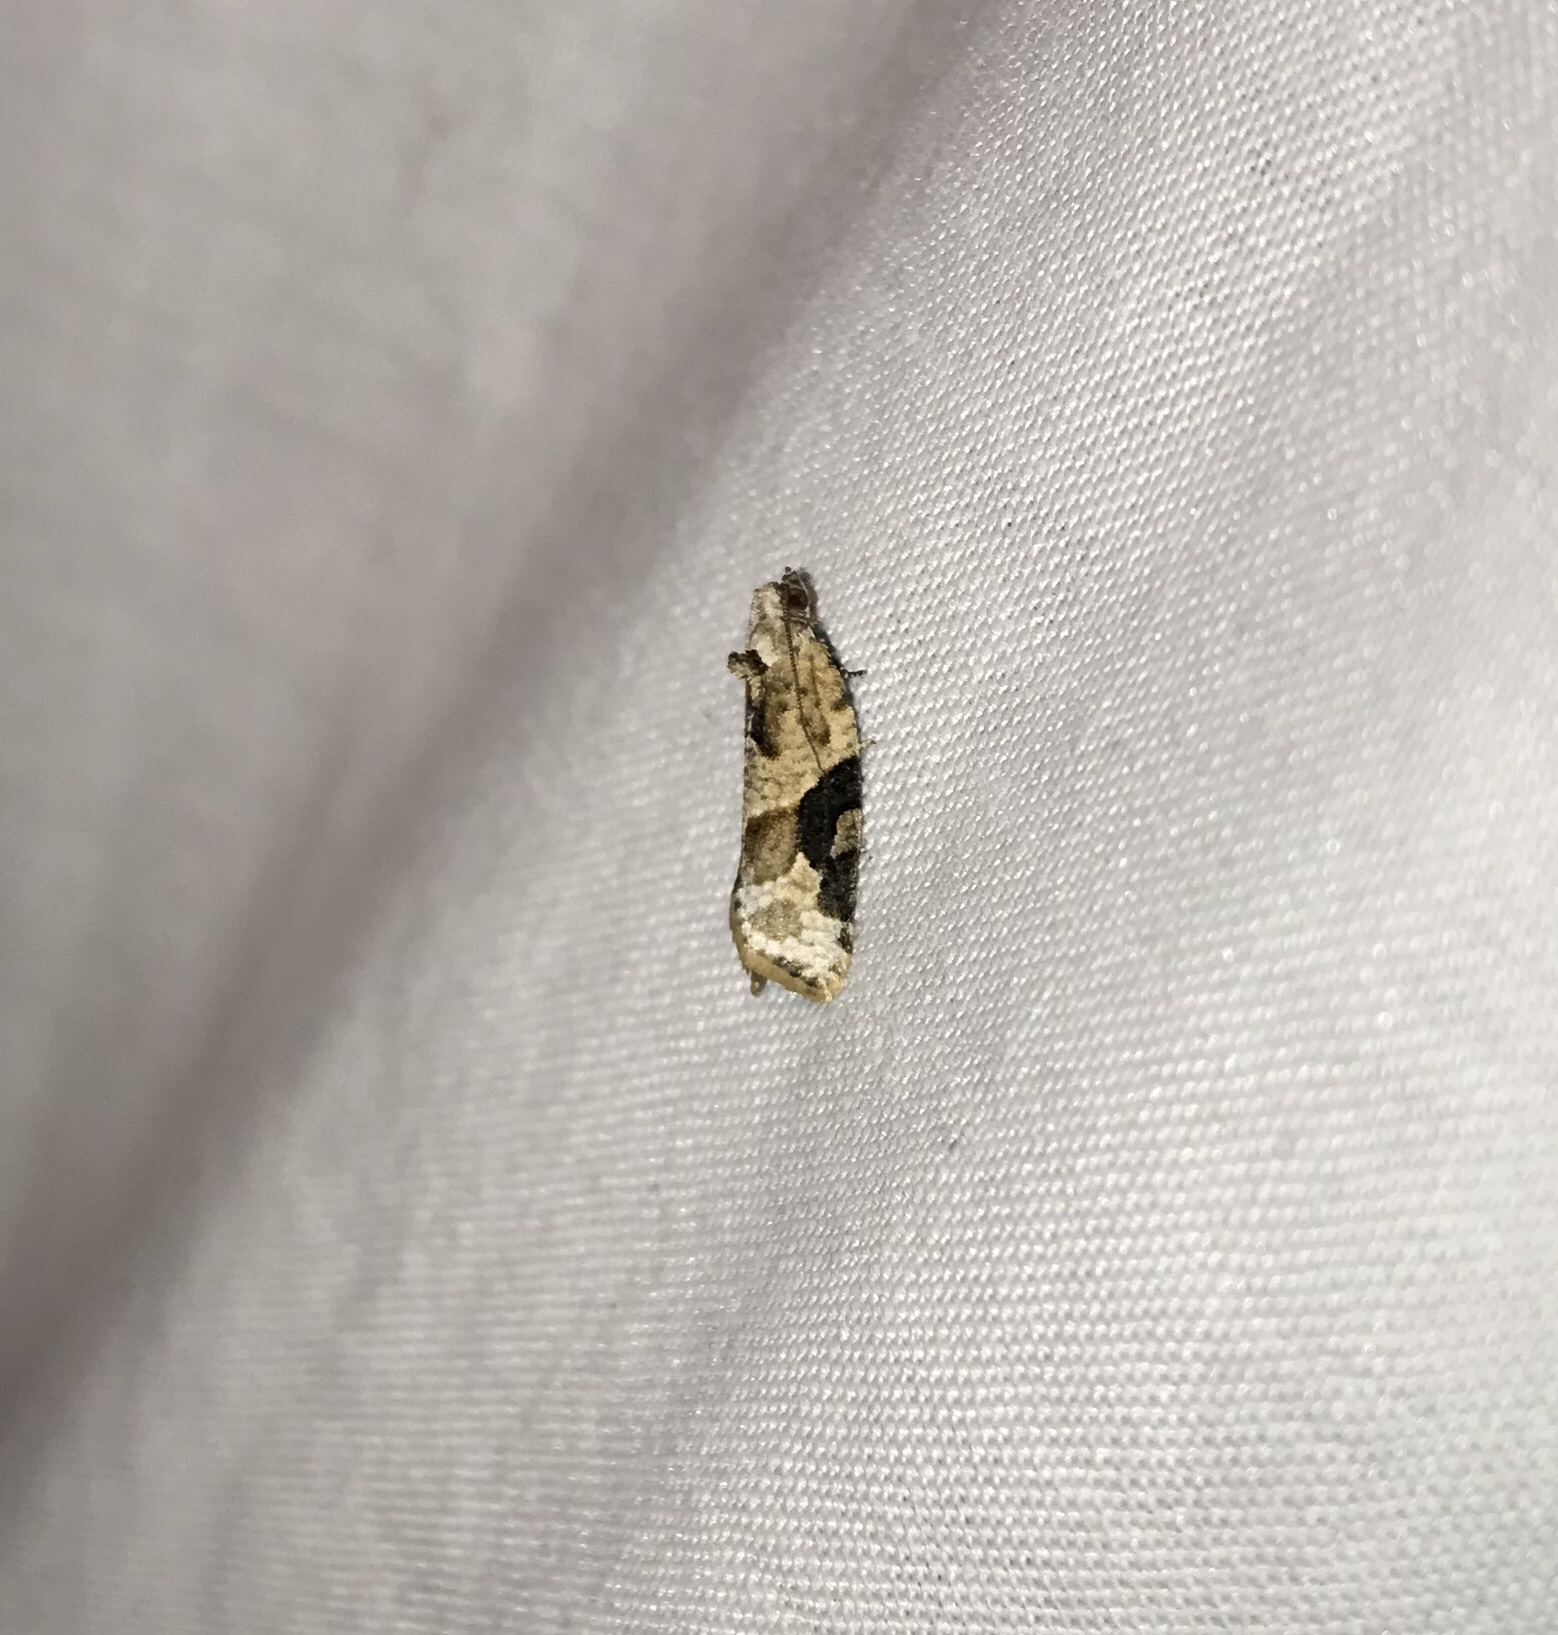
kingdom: Animalia
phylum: Arthropoda
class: Insecta
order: Lepidoptera
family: Tortricidae
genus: Argyrotaenia
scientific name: Argyrotaenia mariana
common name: Gray-banded leafroller moth
